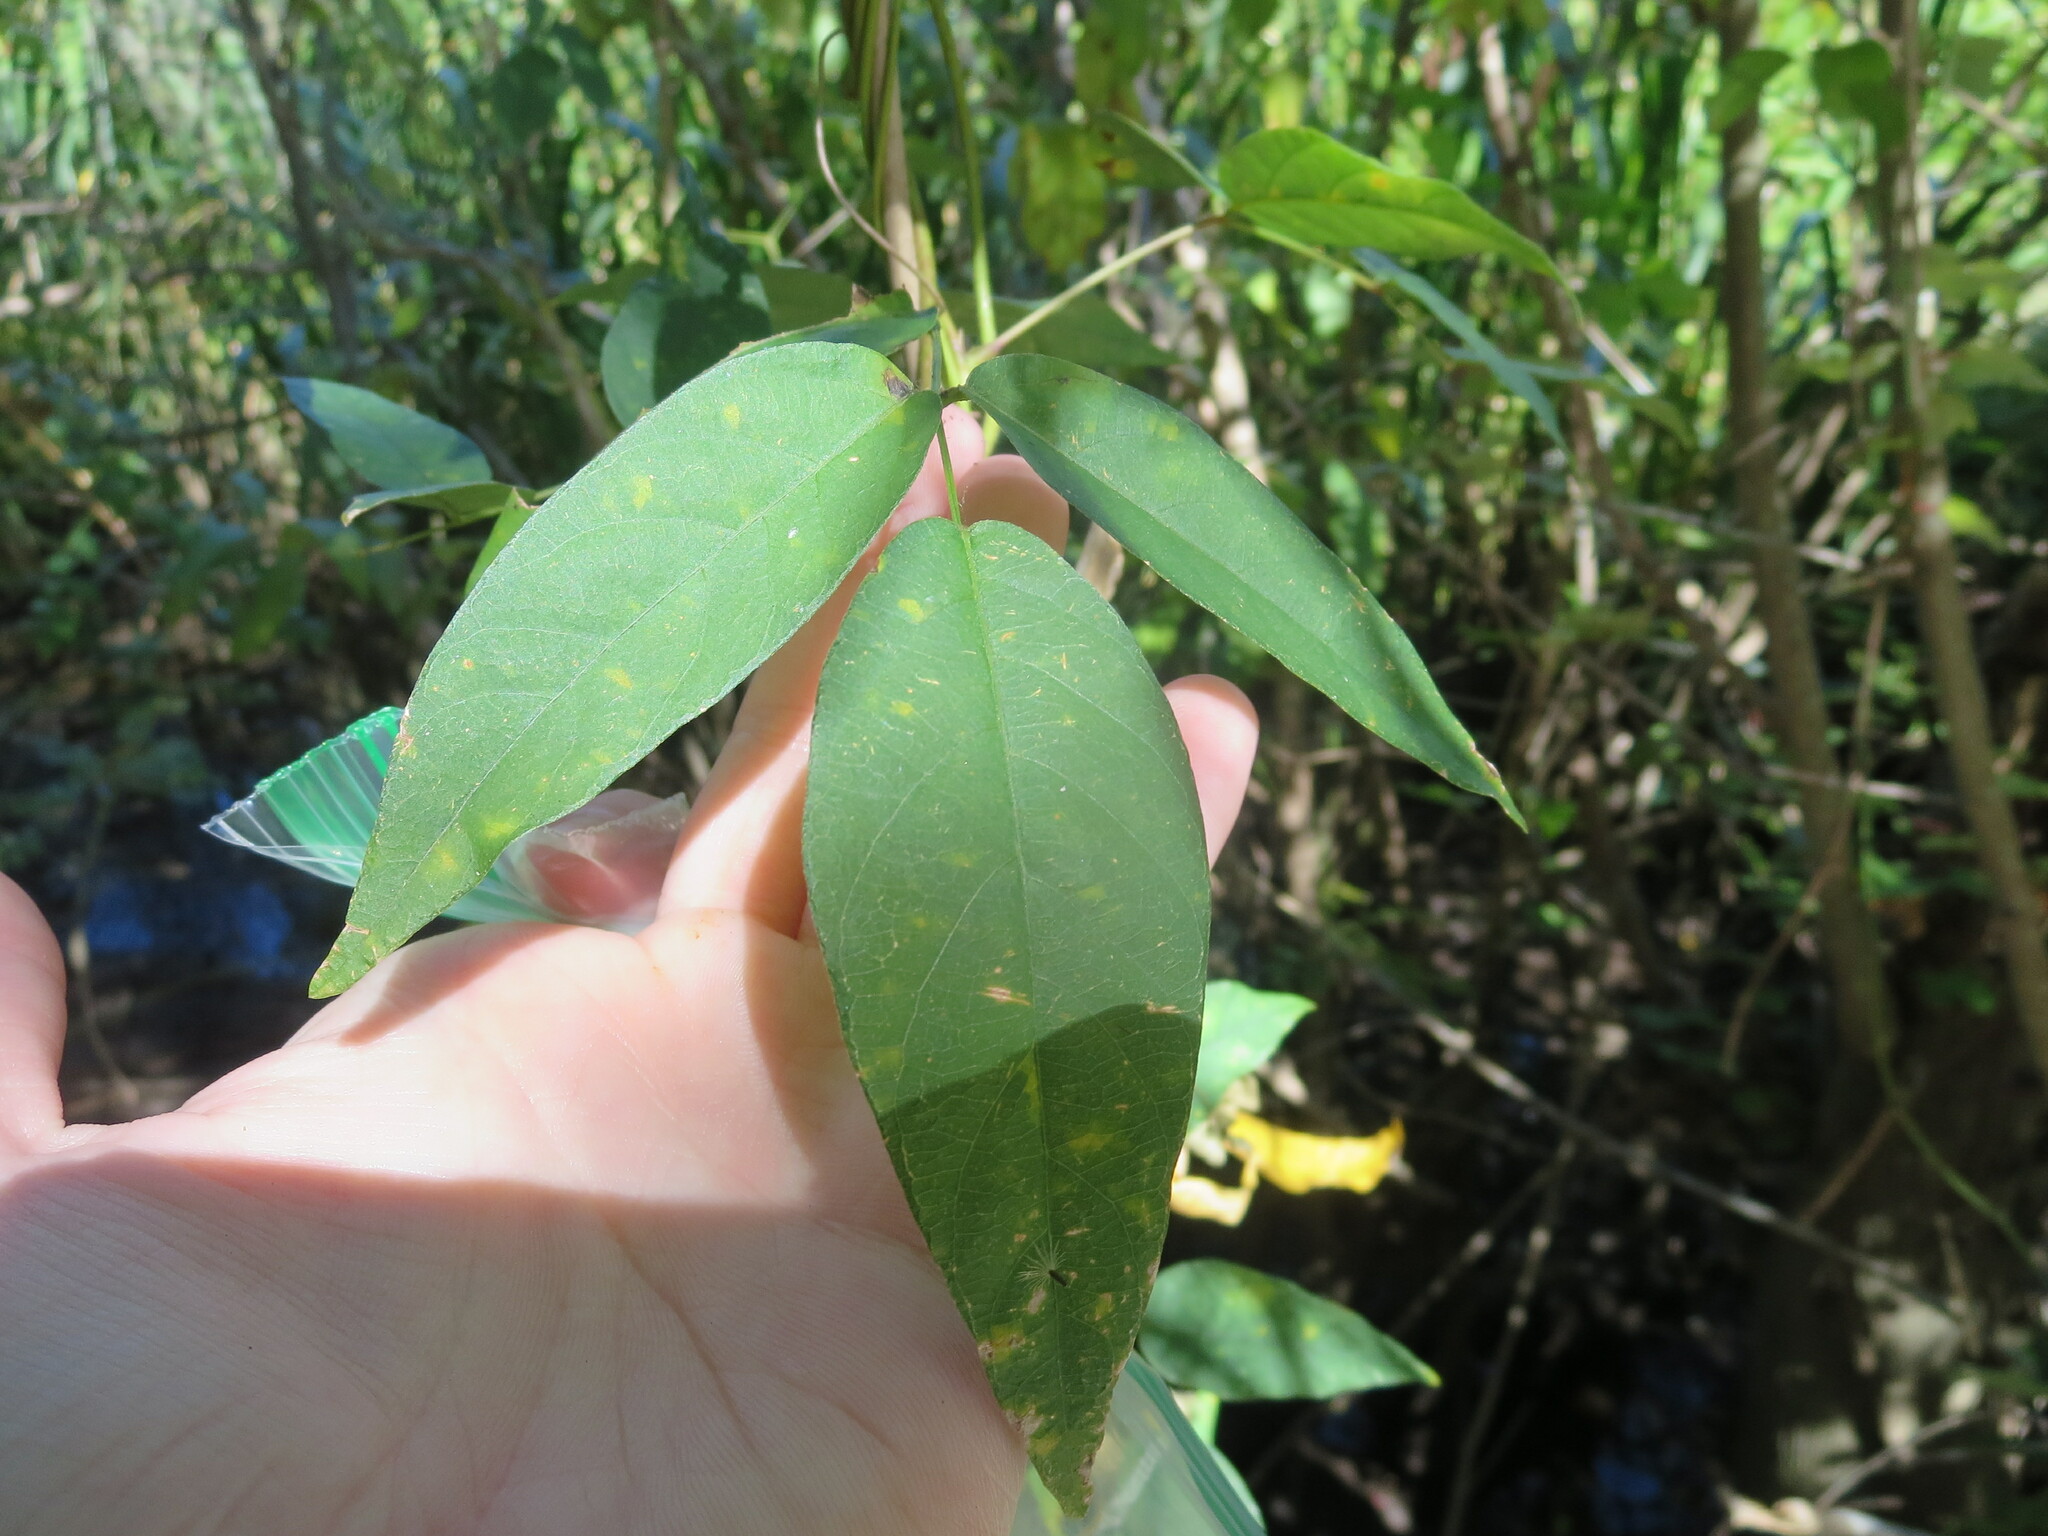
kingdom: Plantae
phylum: Tracheophyta
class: Magnoliopsida
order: Fabales
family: Fabaceae
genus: Apios
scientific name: Apios americana
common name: American potato-bean
